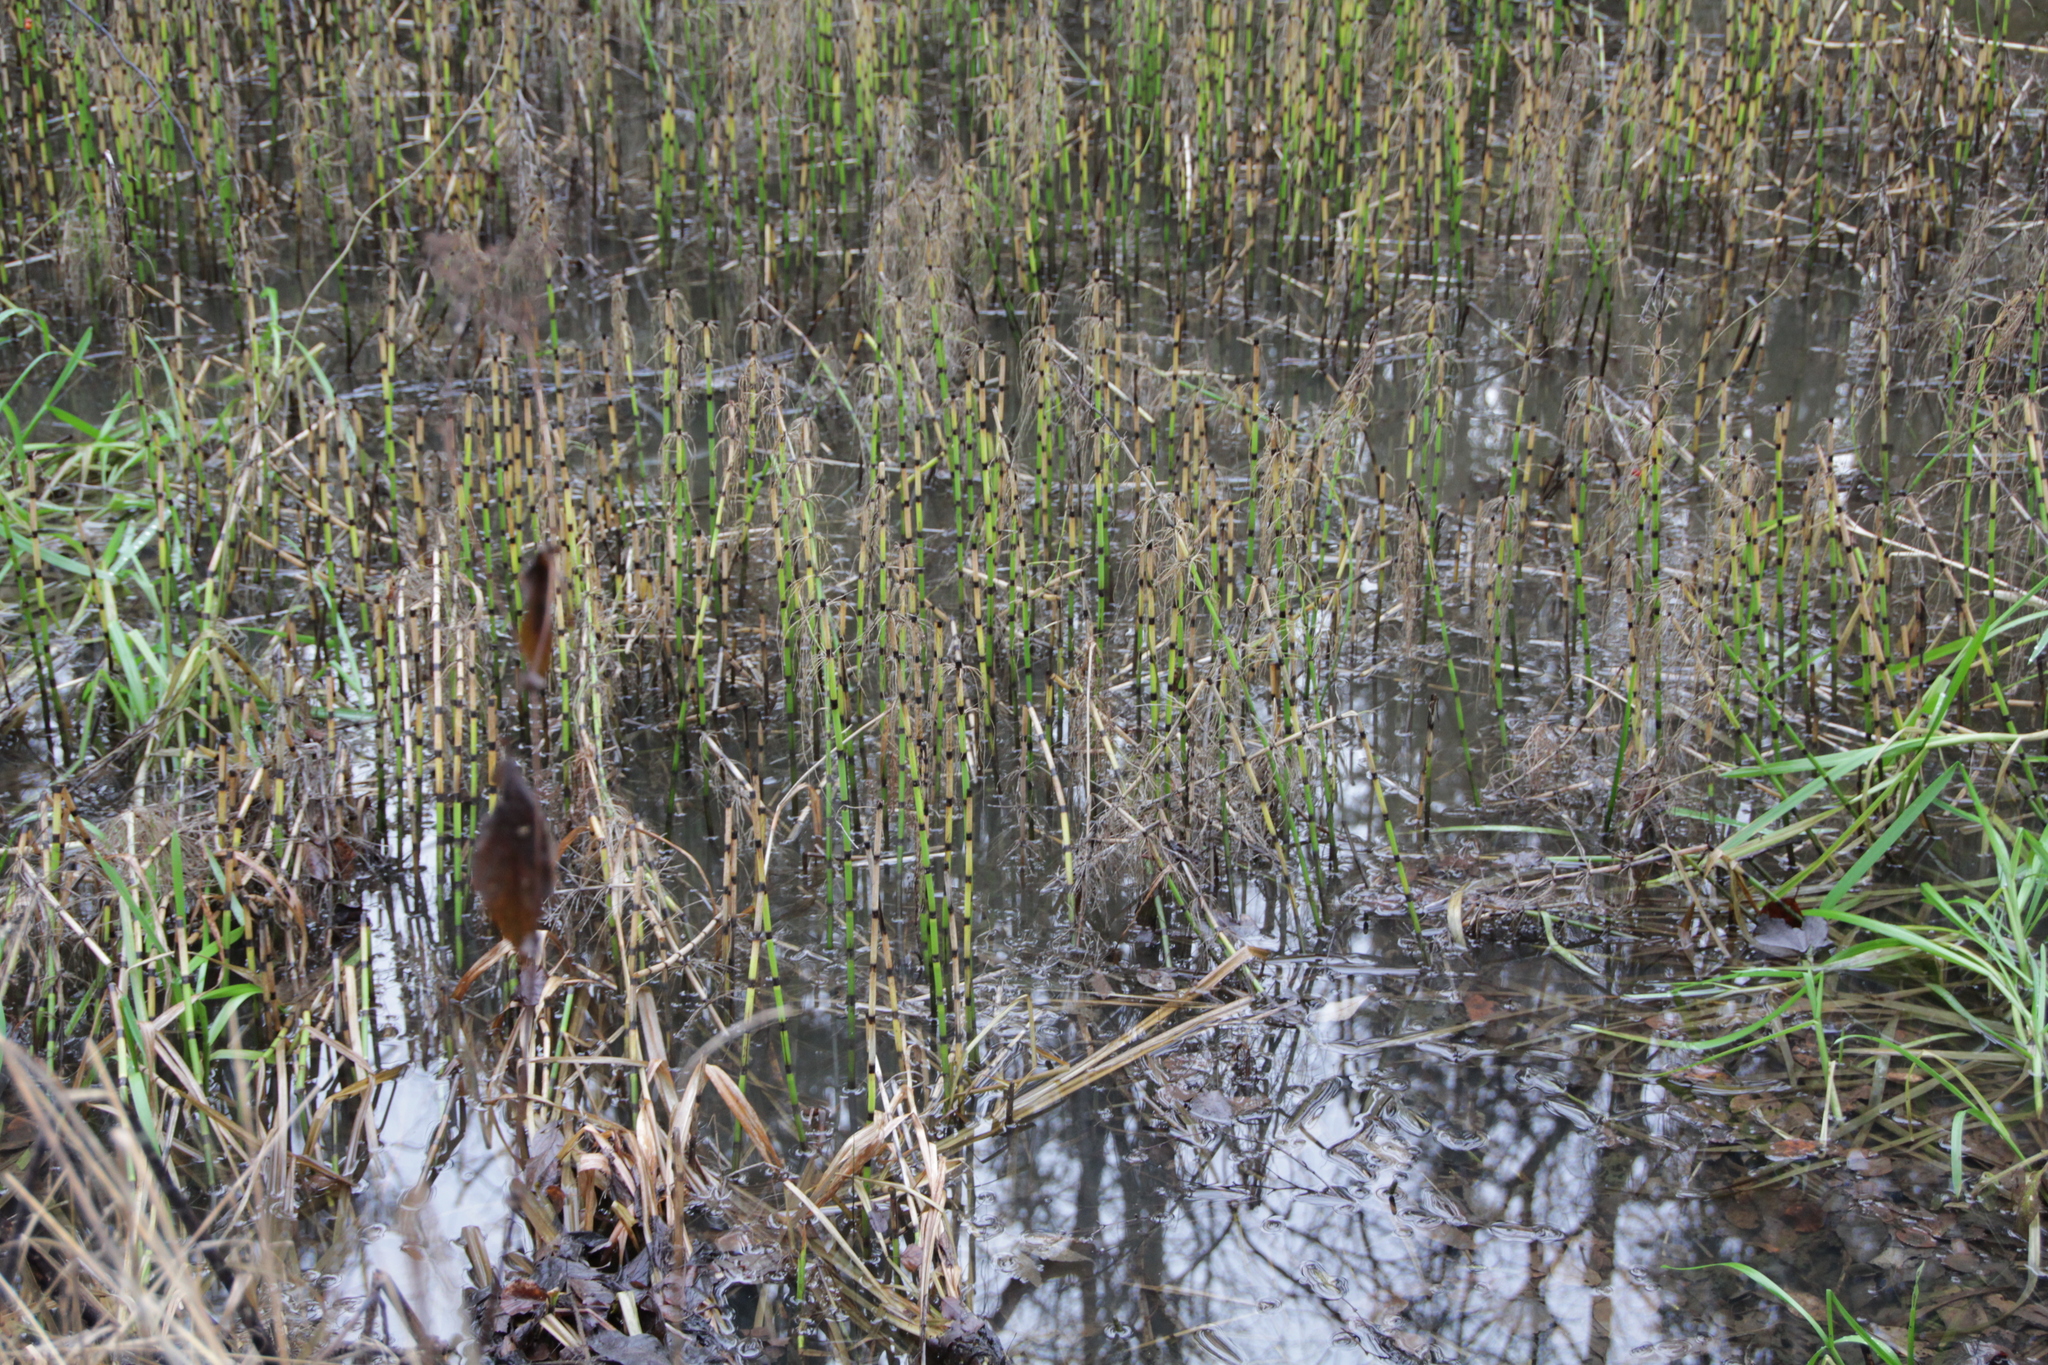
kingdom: Plantae
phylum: Tracheophyta
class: Polypodiopsida
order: Equisetales
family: Equisetaceae
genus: Equisetum
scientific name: Equisetum fluviatile
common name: Water horsetail
